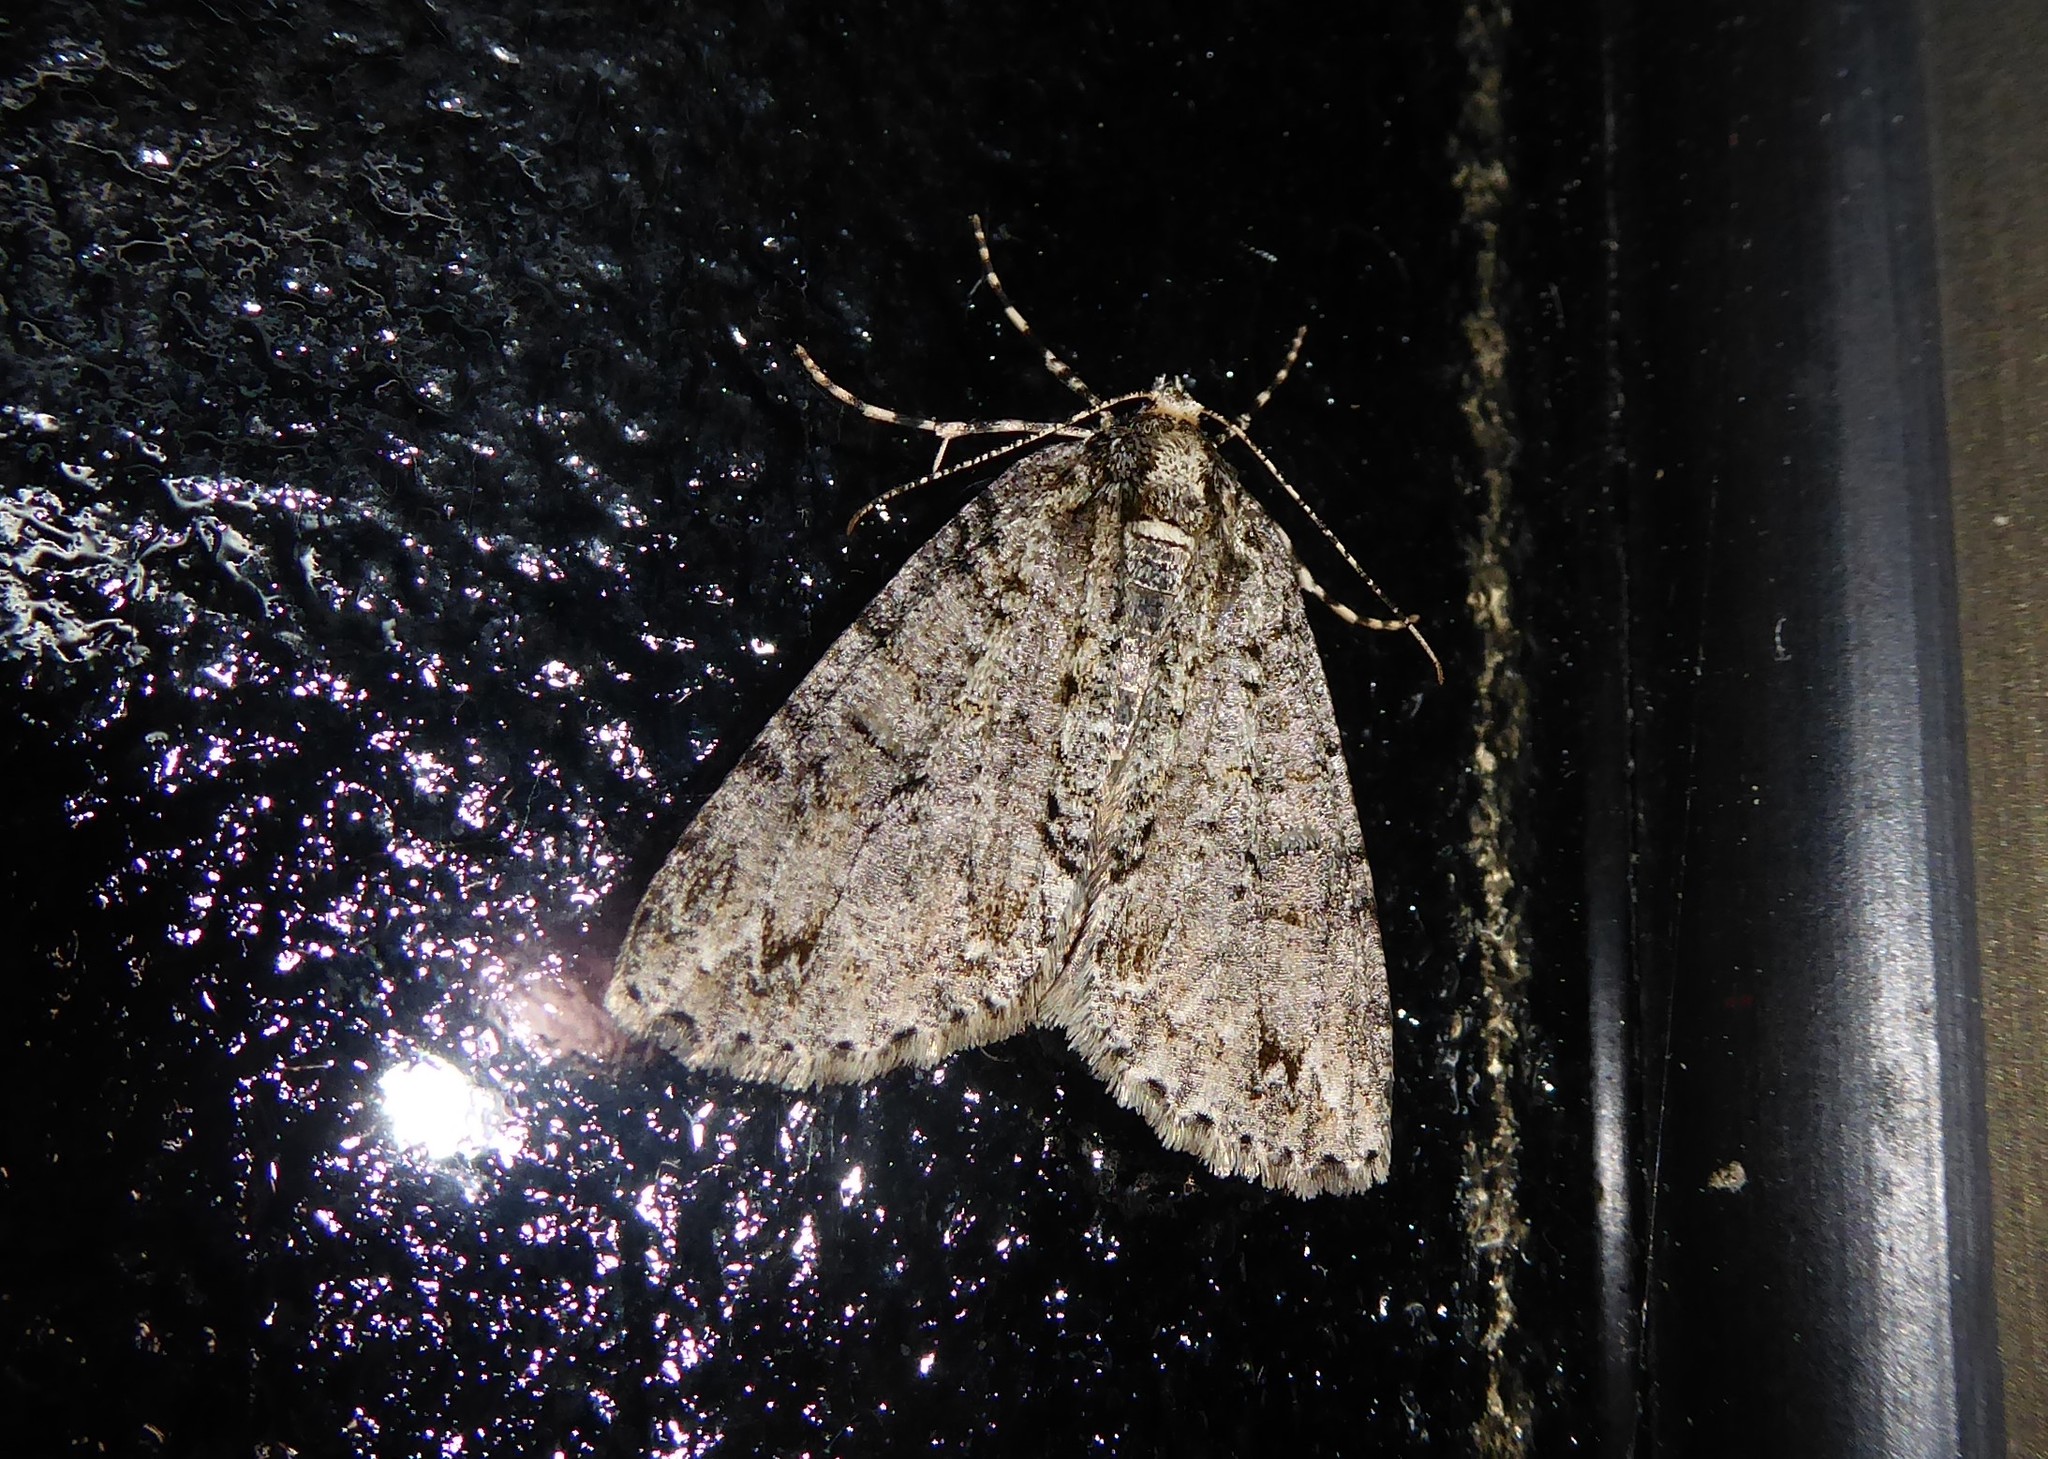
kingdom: Animalia
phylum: Arthropoda
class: Insecta
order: Lepidoptera
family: Geometridae
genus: Pseudocoremia
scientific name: Pseudocoremia suavis
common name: Common forest looper
